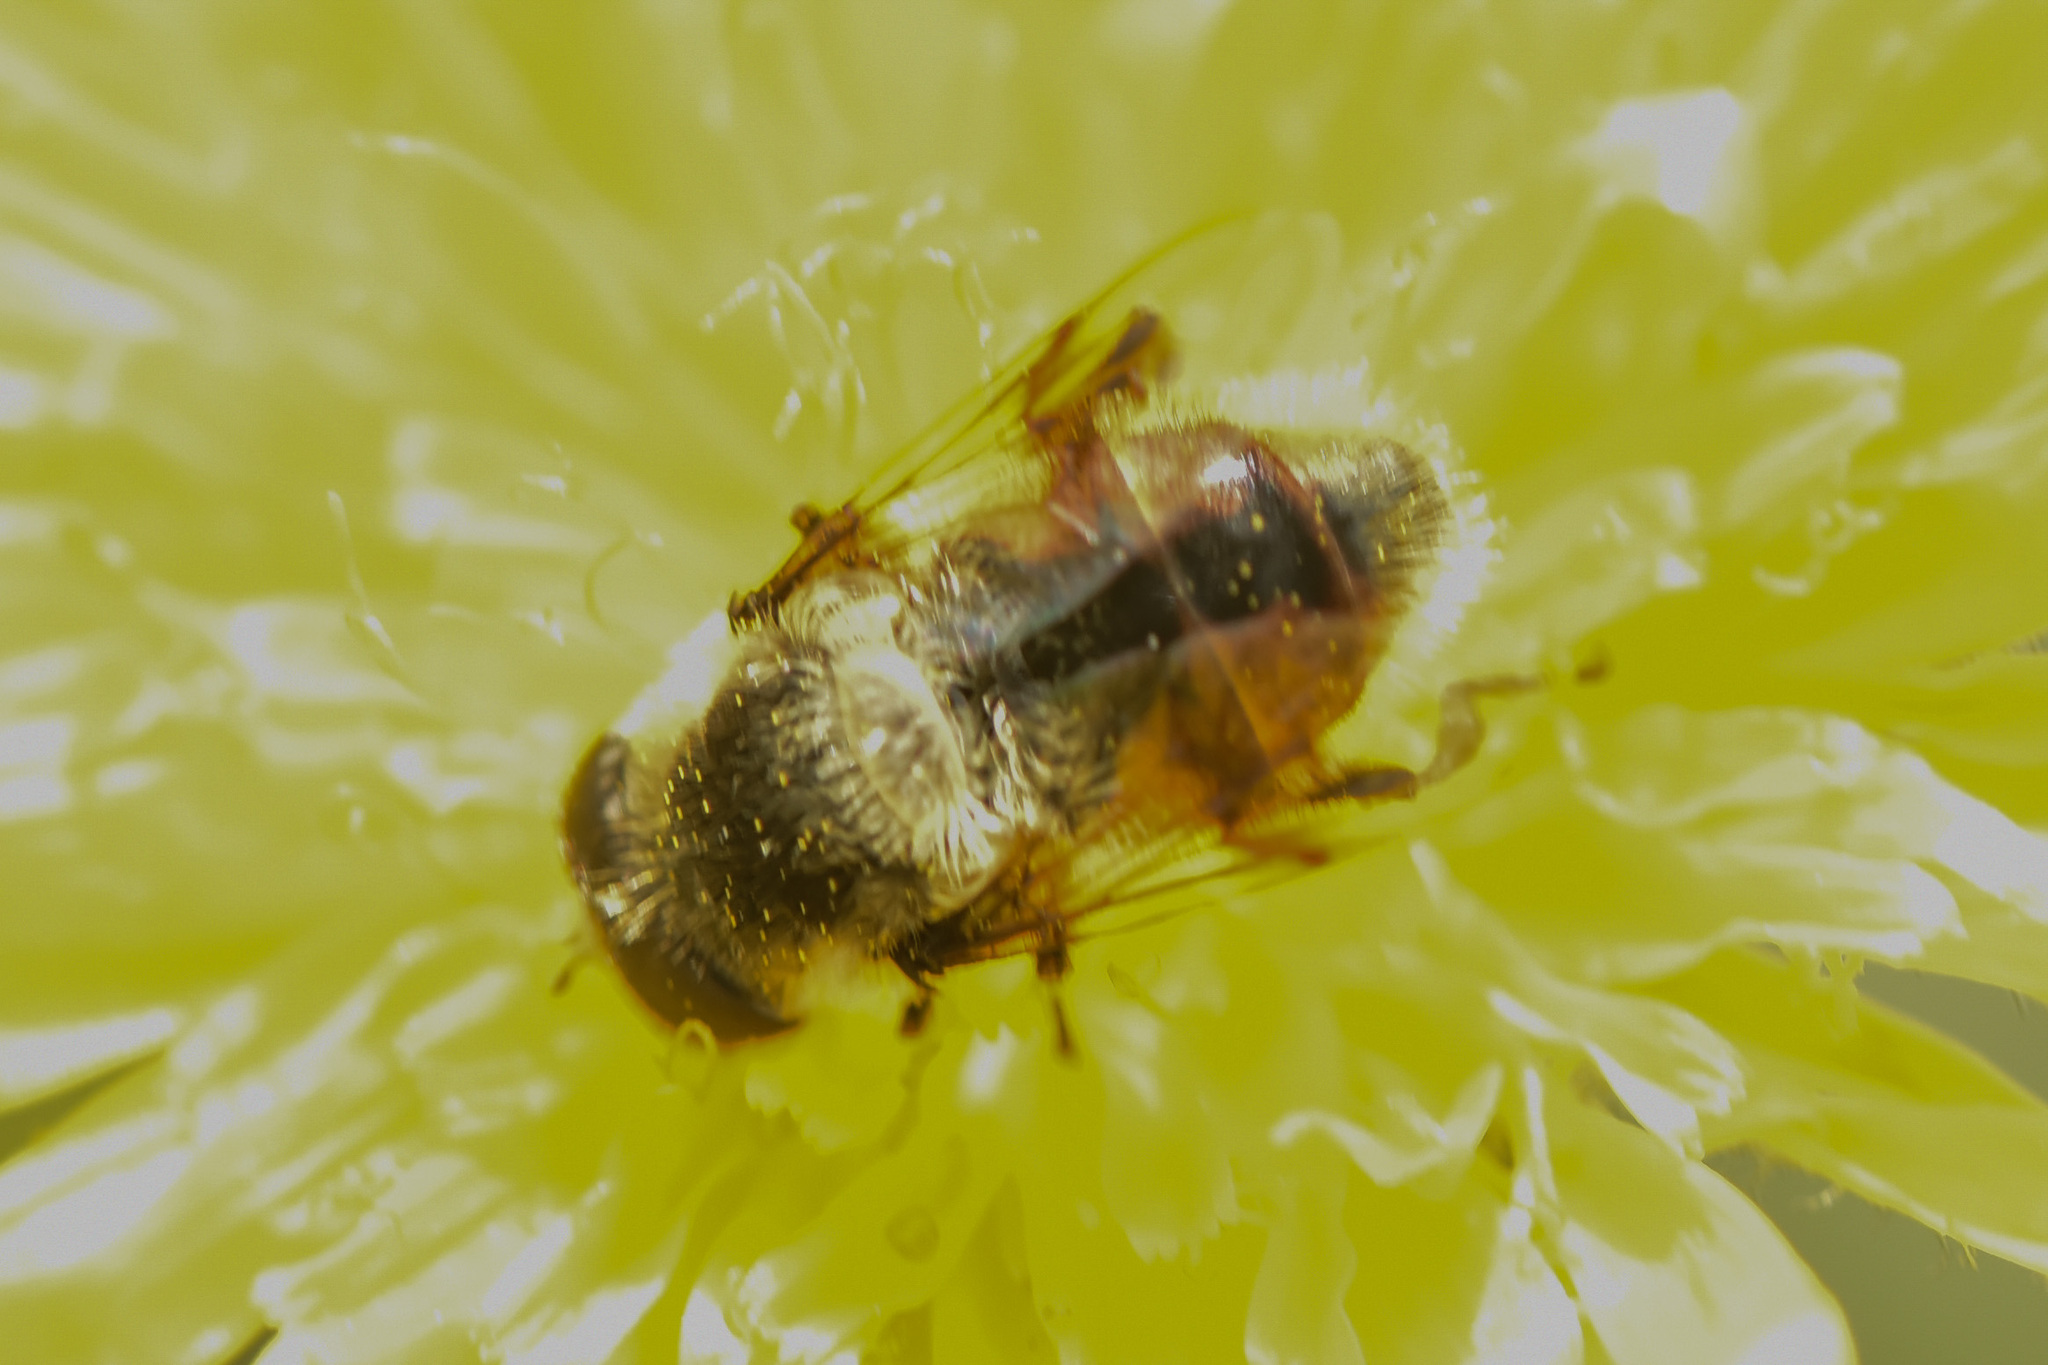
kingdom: Animalia
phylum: Arthropoda
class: Insecta
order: Diptera
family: Syrphidae
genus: Eristalis
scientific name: Eristalis anthophorina
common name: Orange-spotted drone fly
